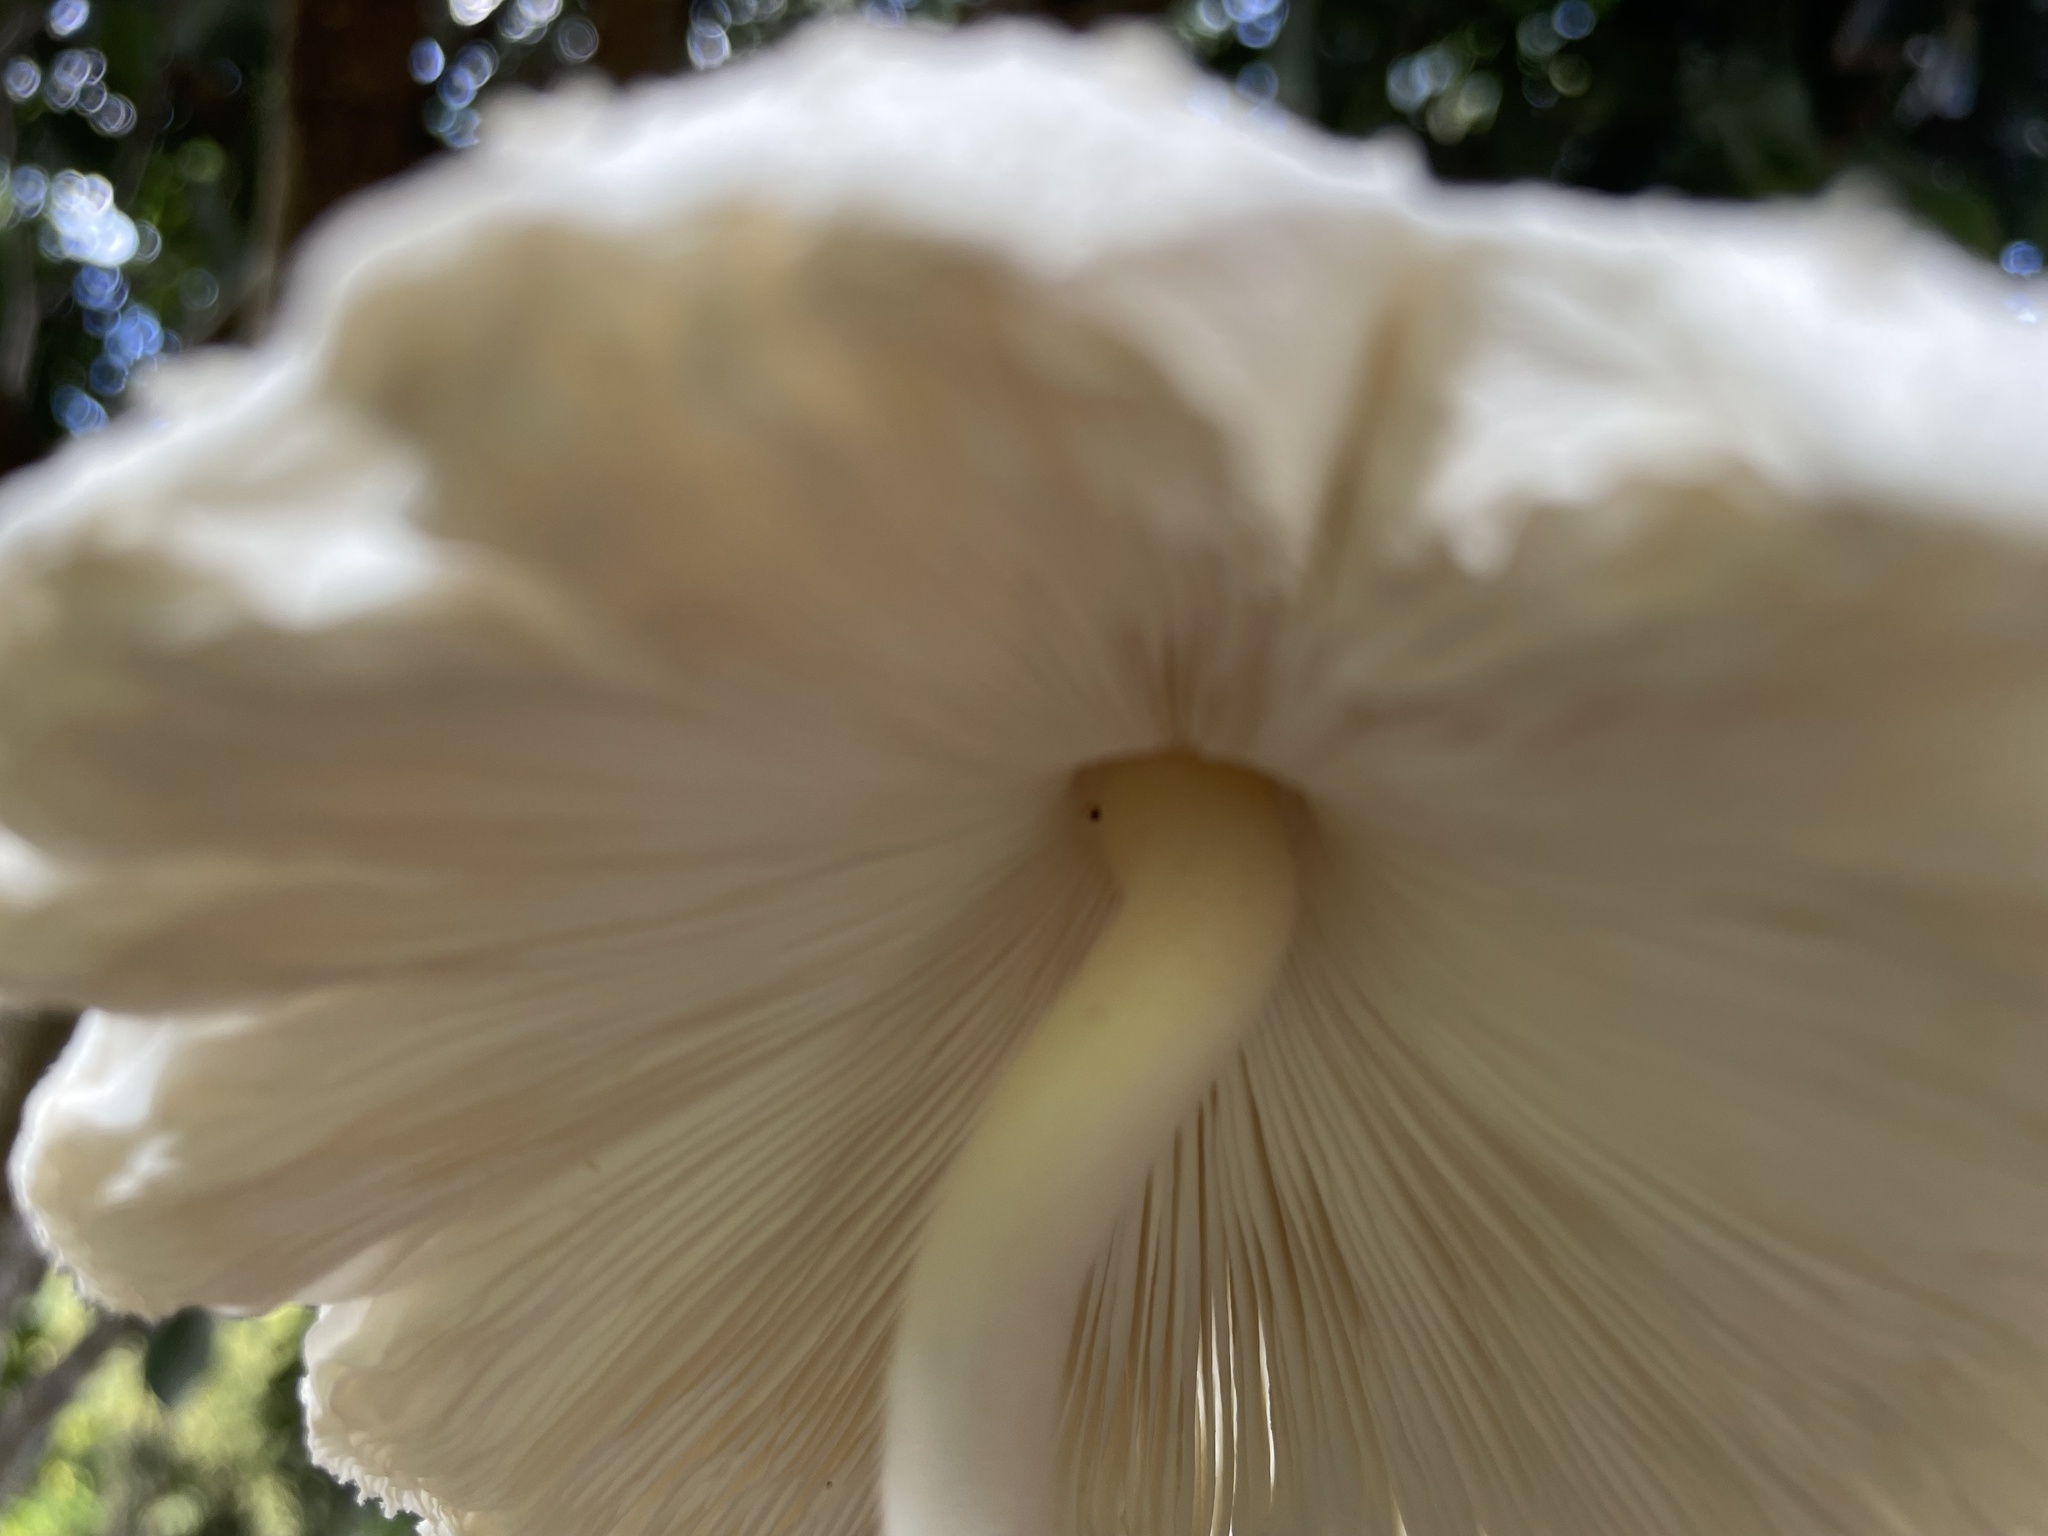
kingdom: Fungi
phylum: Basidiomycota
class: Agaricomycetes
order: Agaricales
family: Agaricaceae
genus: Leucocoprinus
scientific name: Leucocoprinus cretaceus
